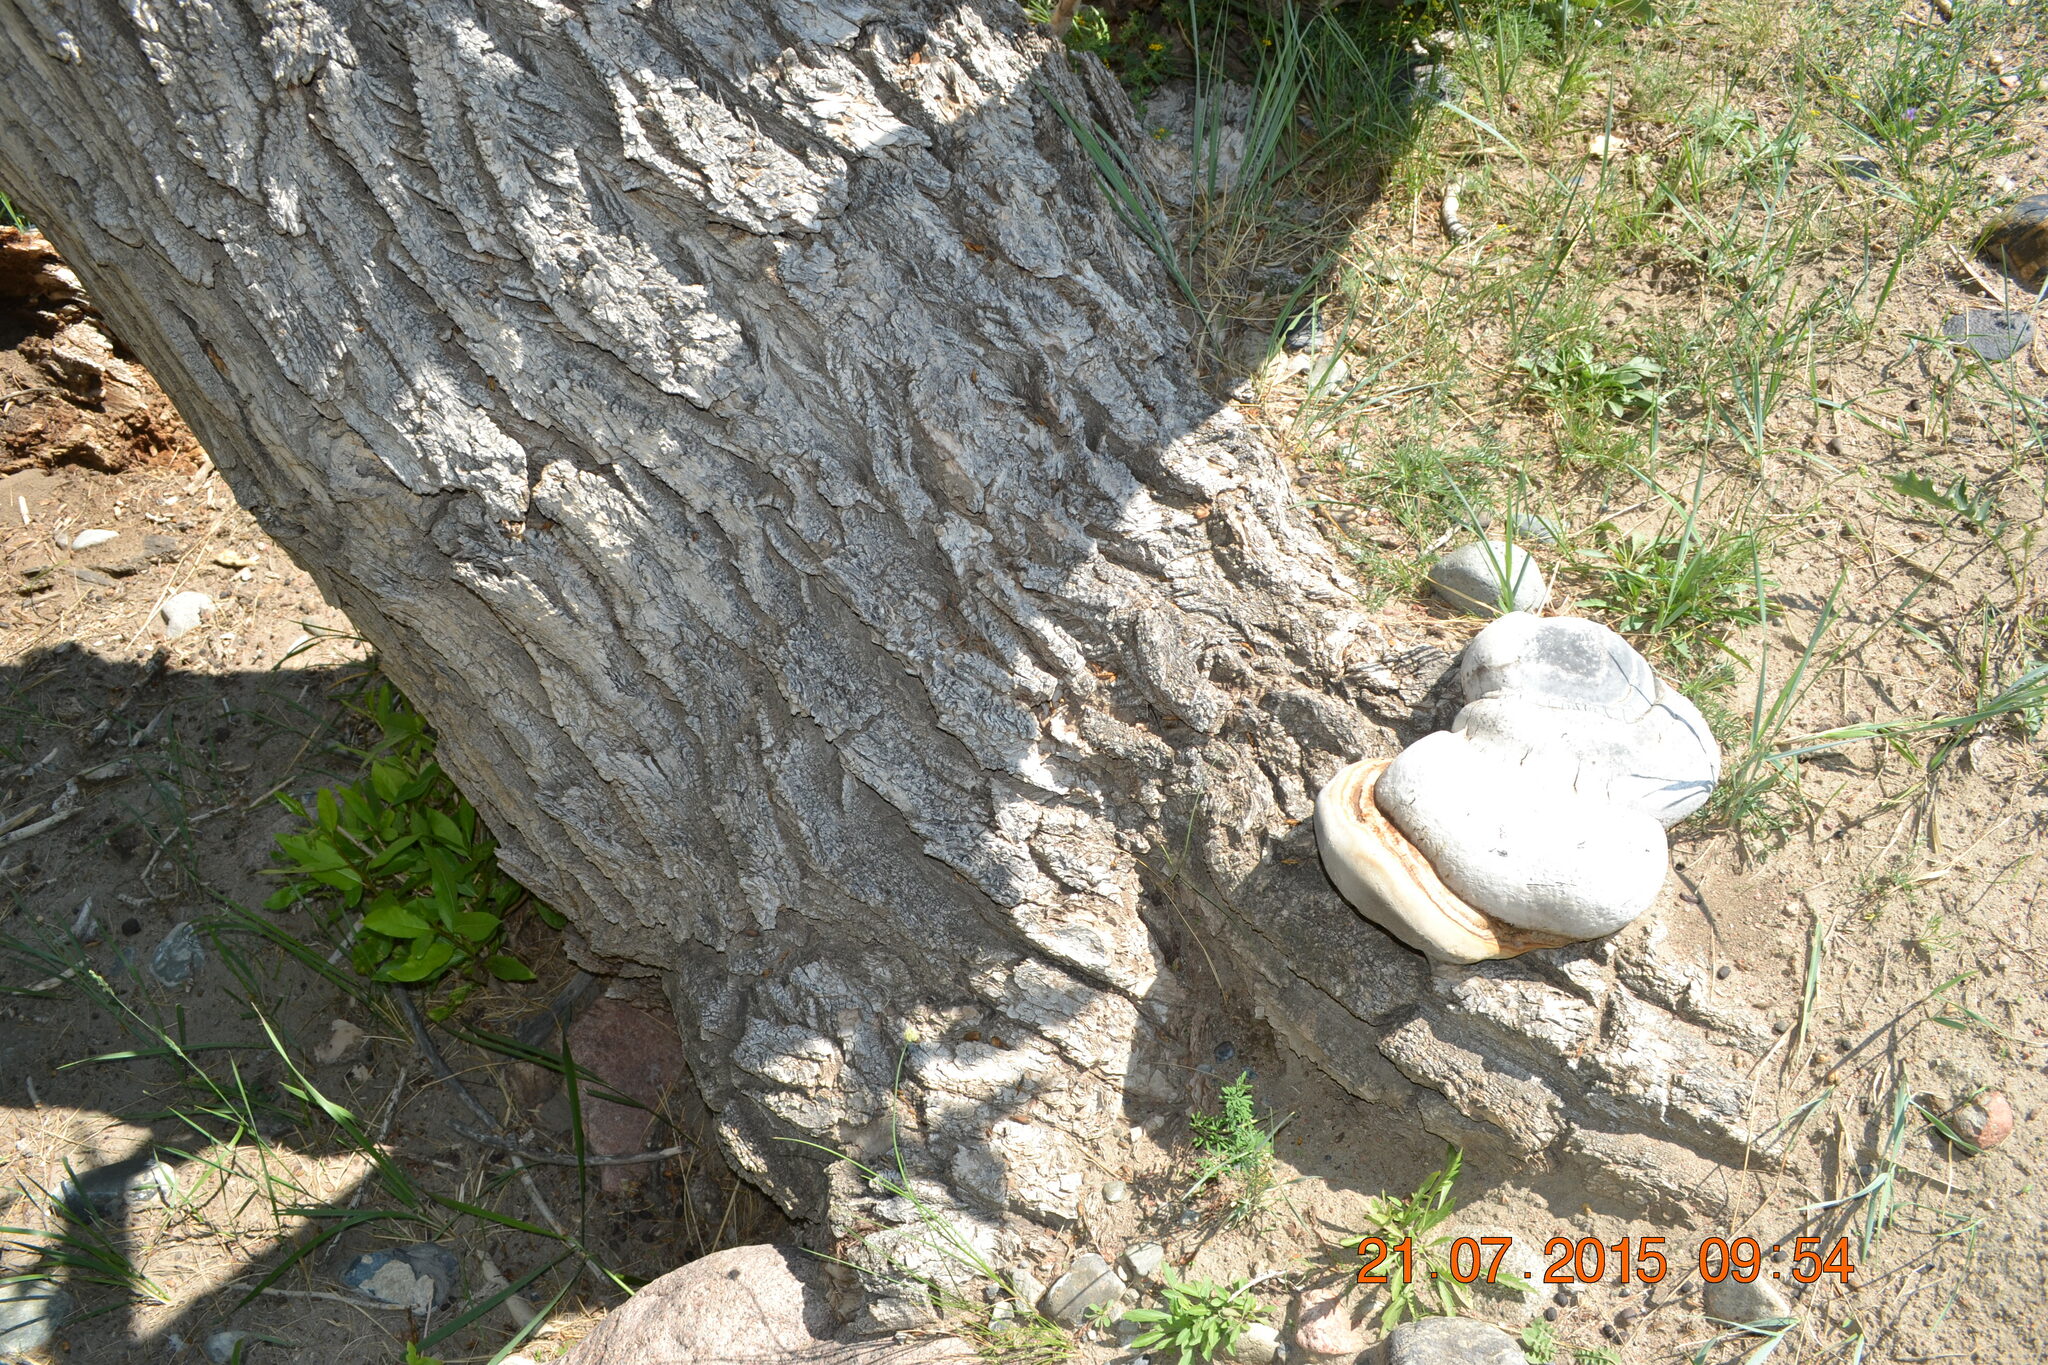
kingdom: Fungi
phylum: Basidiomycota
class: Agaricomycetes
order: Polyporales
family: Polyporaceae
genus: Fomes
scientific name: Fomes fomentarius
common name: Hoof fungus
